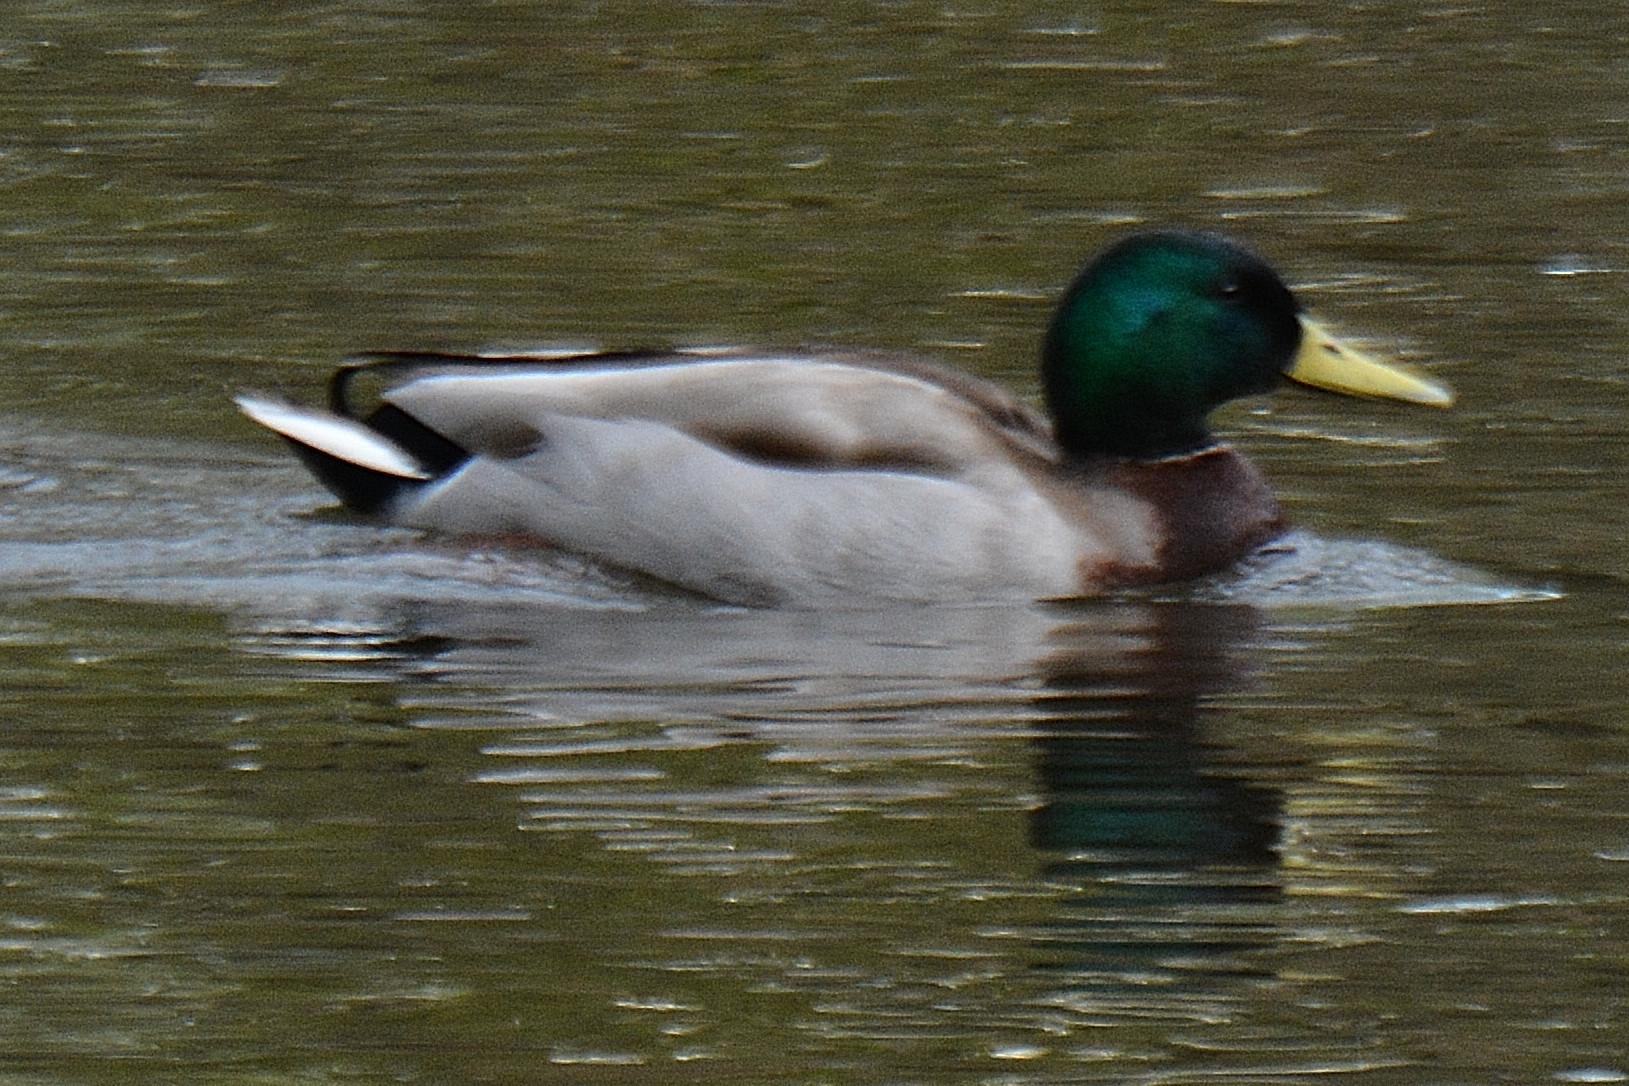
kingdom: Animalia
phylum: Chordata
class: Aves
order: Anseriformes
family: Anatidae
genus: Anas
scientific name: Anas platyrhynchos
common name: Mallard
